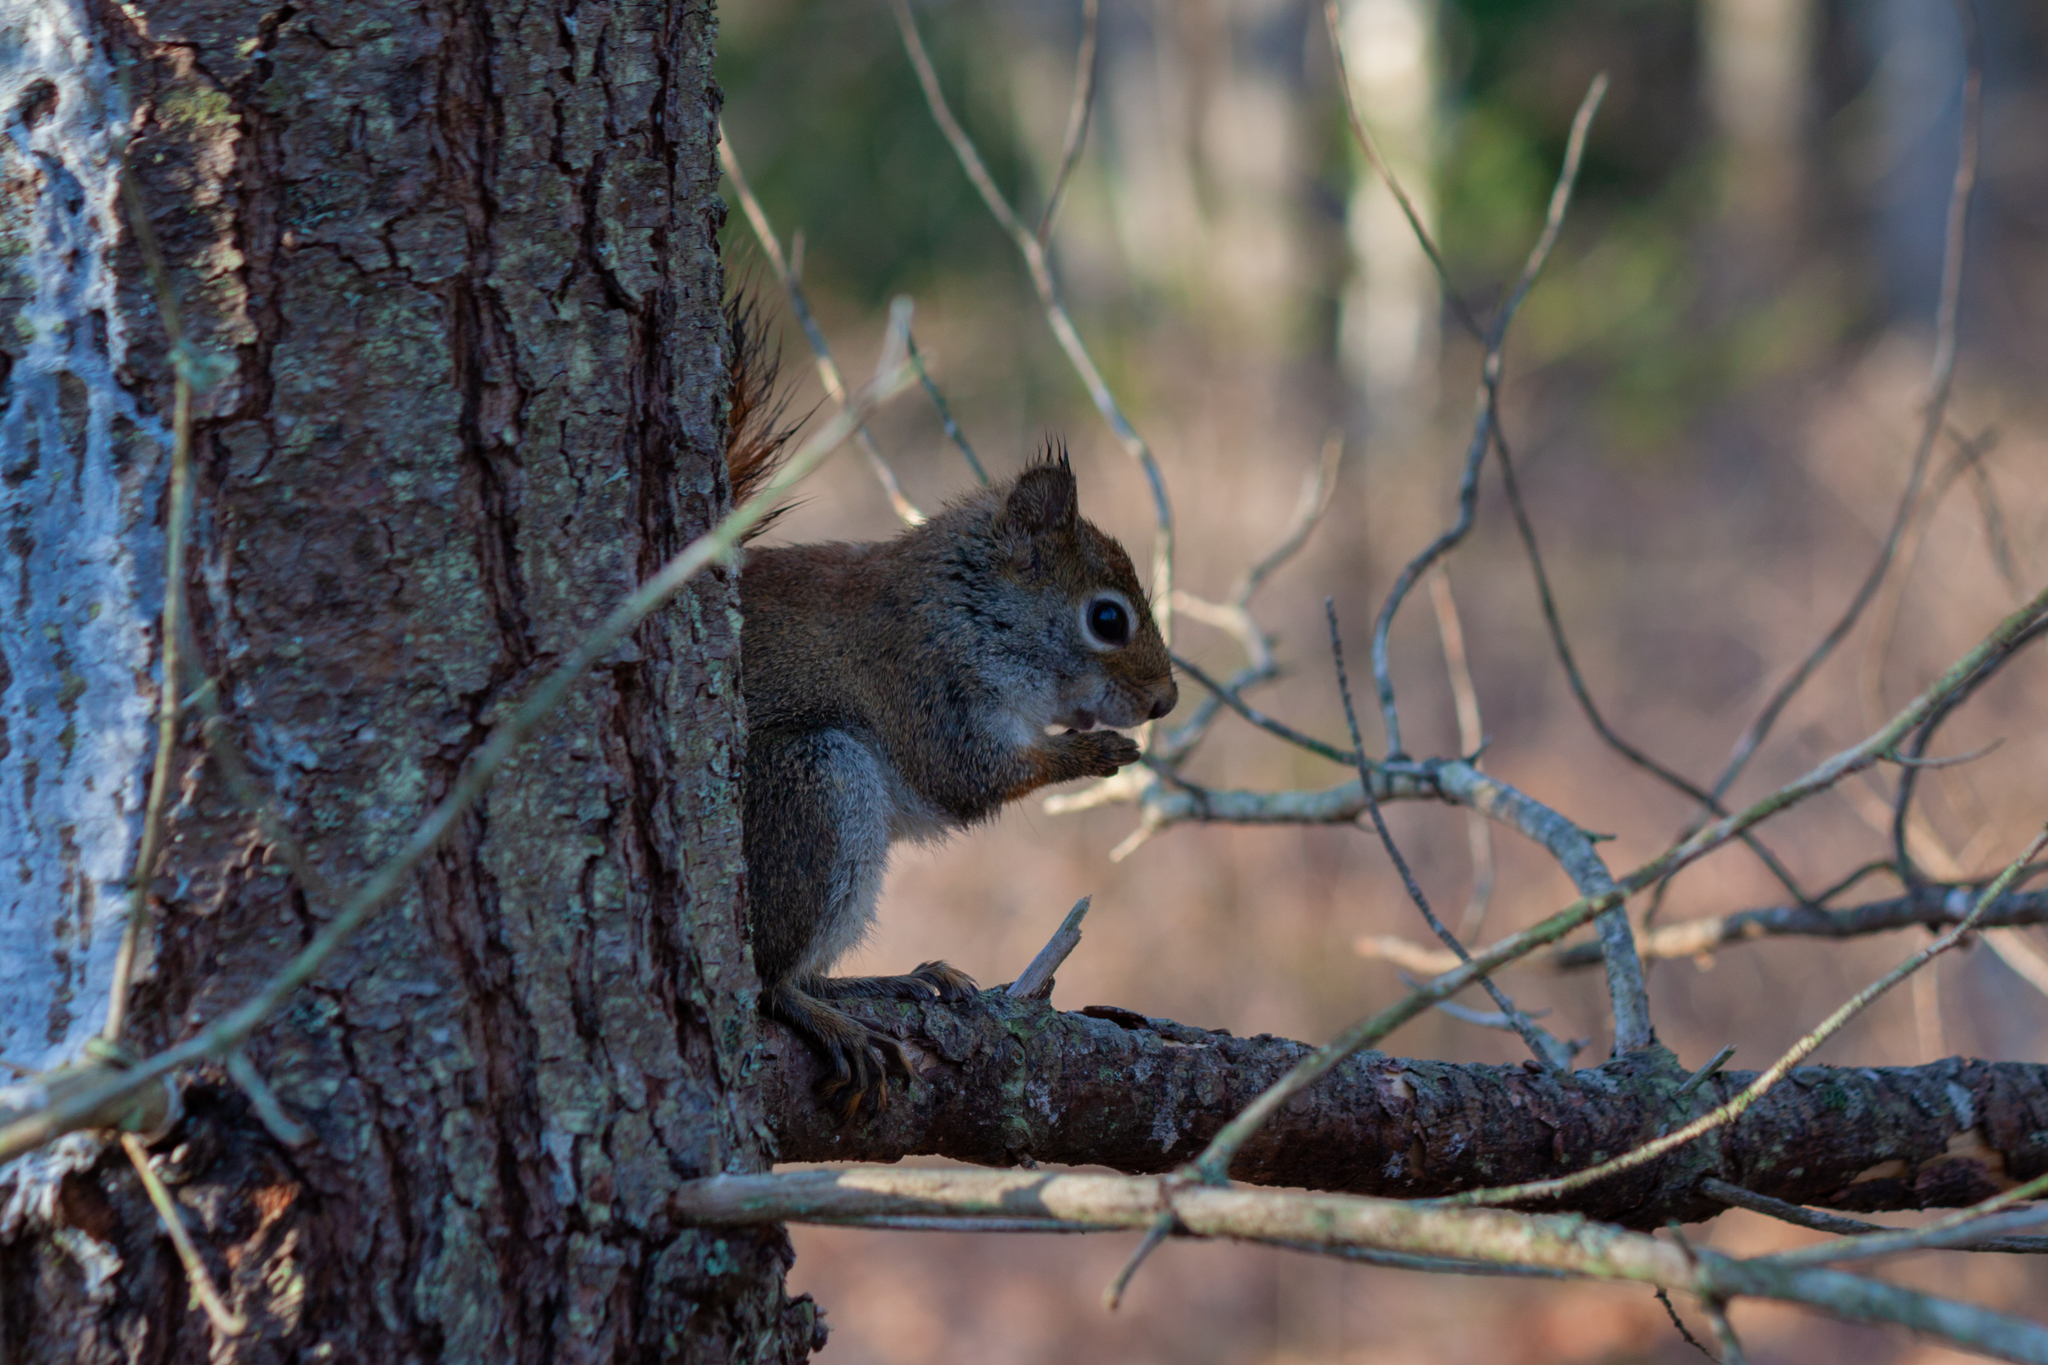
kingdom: Animalia
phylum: Chordata
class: Mammalia
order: Rodentia
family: Sciuridae
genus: Tamiasciurus
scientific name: Tamiasciurus hudsonicus
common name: Red squirrel
